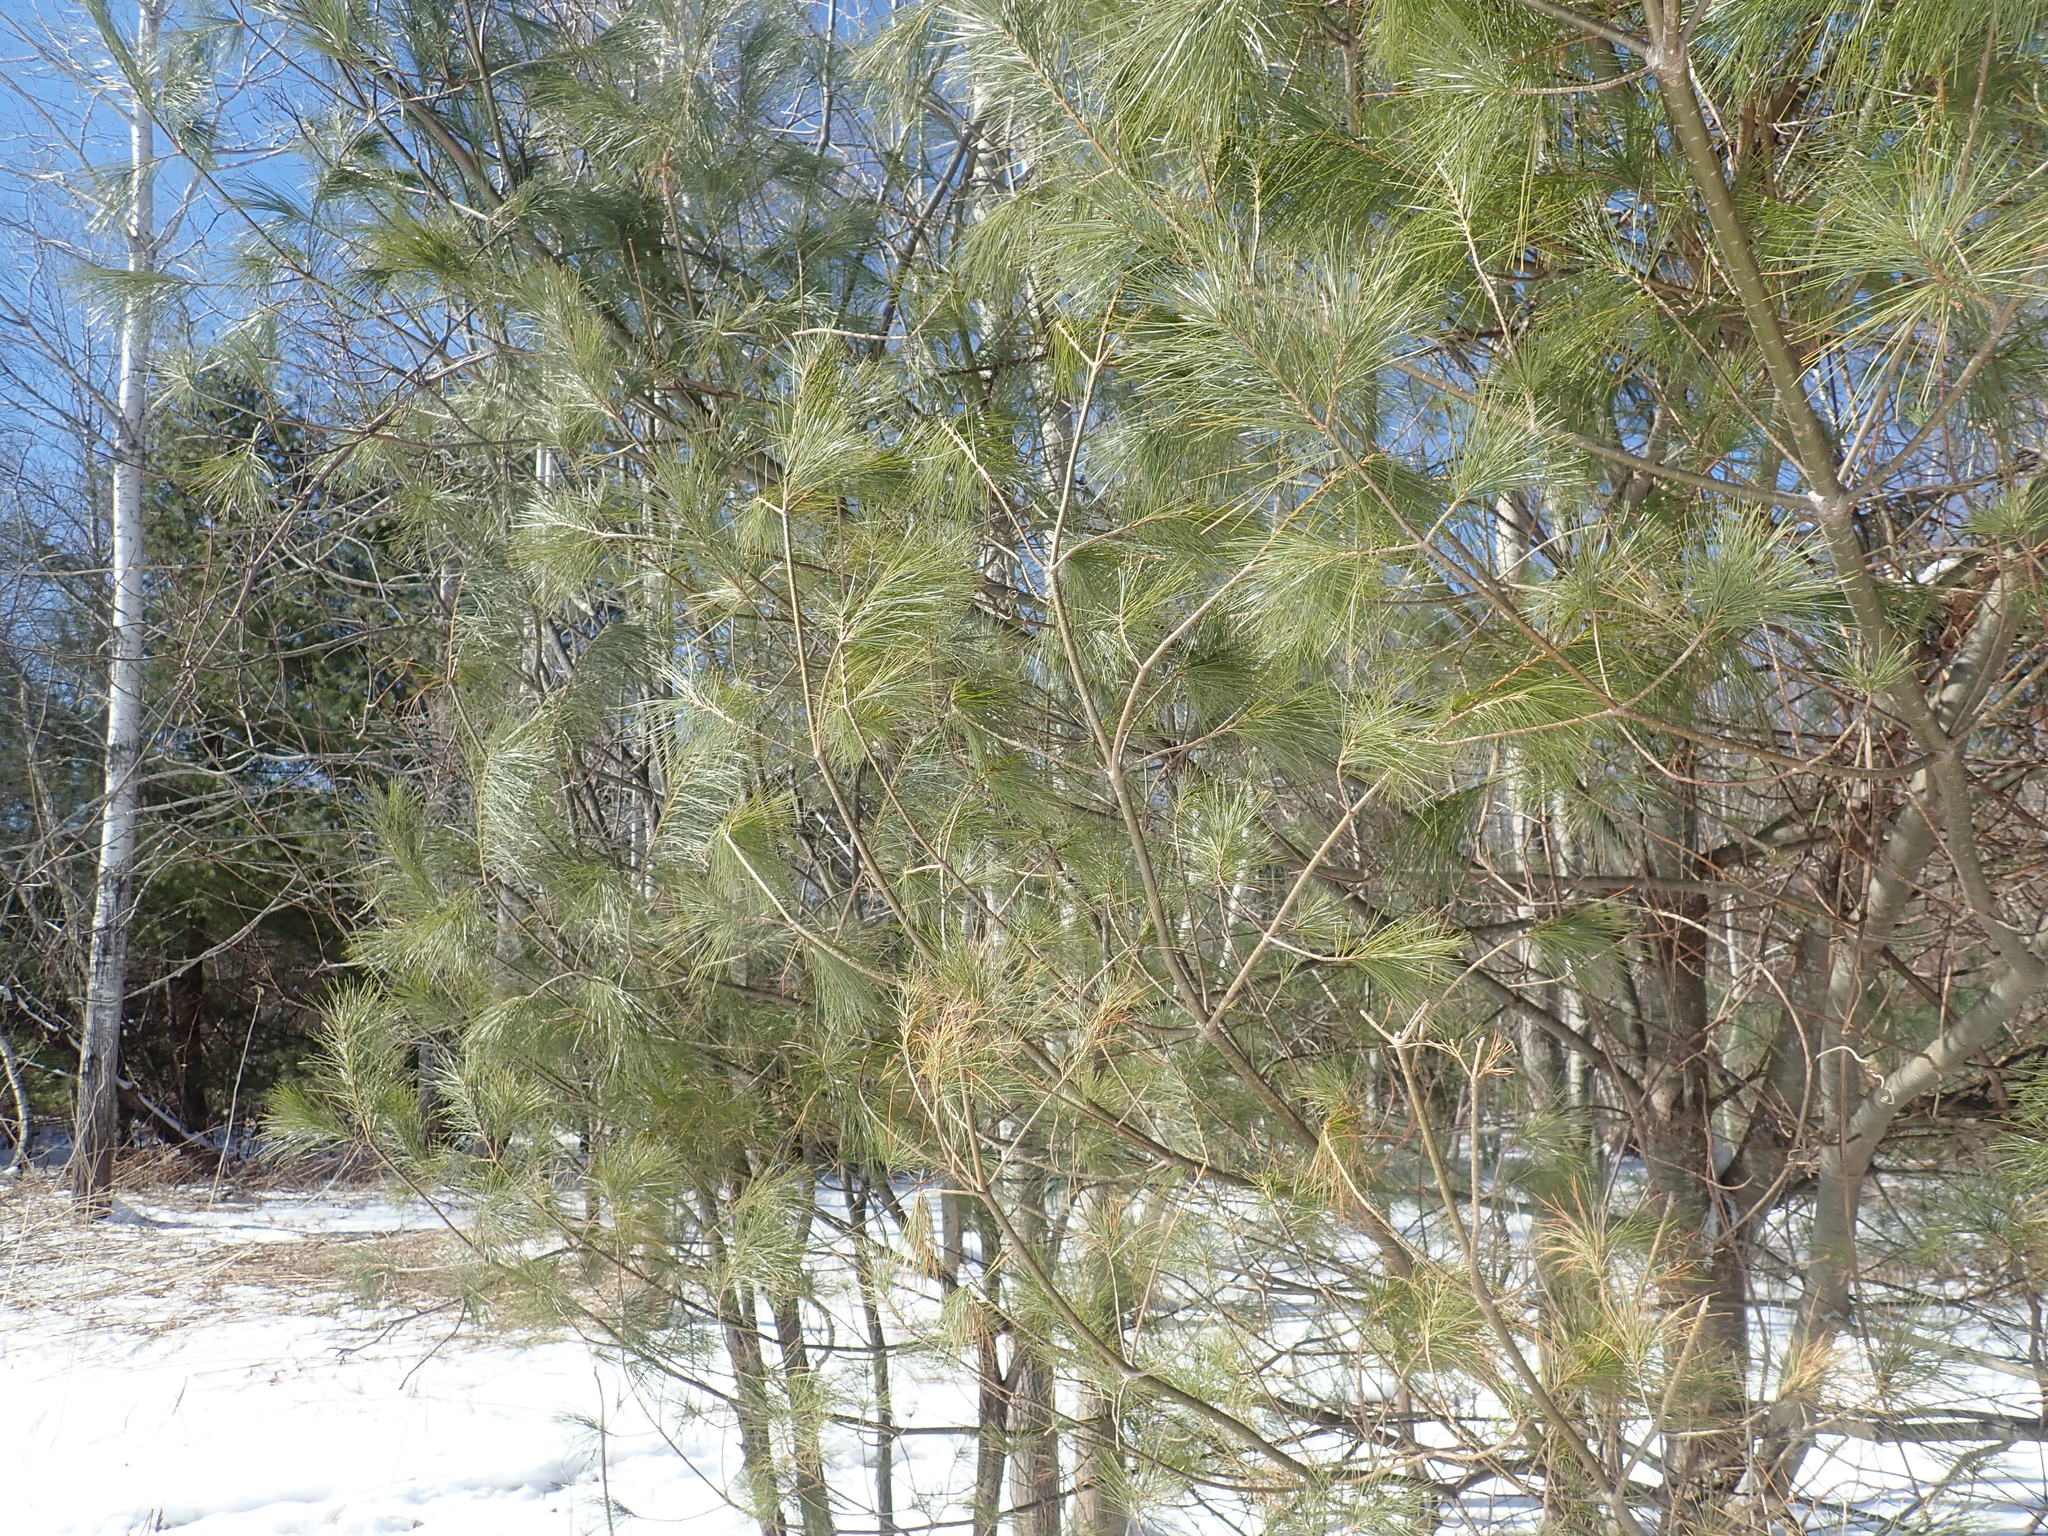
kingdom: Plantae
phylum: Tracheophyta
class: Pinopsida
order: Pinales
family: Pinaceae
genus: Pinus
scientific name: Pinus strobus
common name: Weymouth pine
